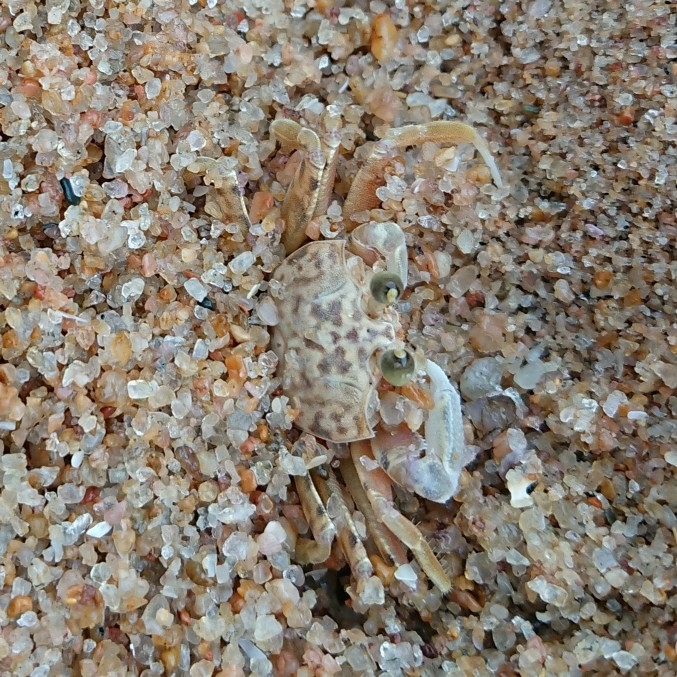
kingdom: Animalia
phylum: Arthropoda
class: Malacostraca
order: Decapoda
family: Ocypodidae
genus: Ocypode
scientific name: Ocypode
